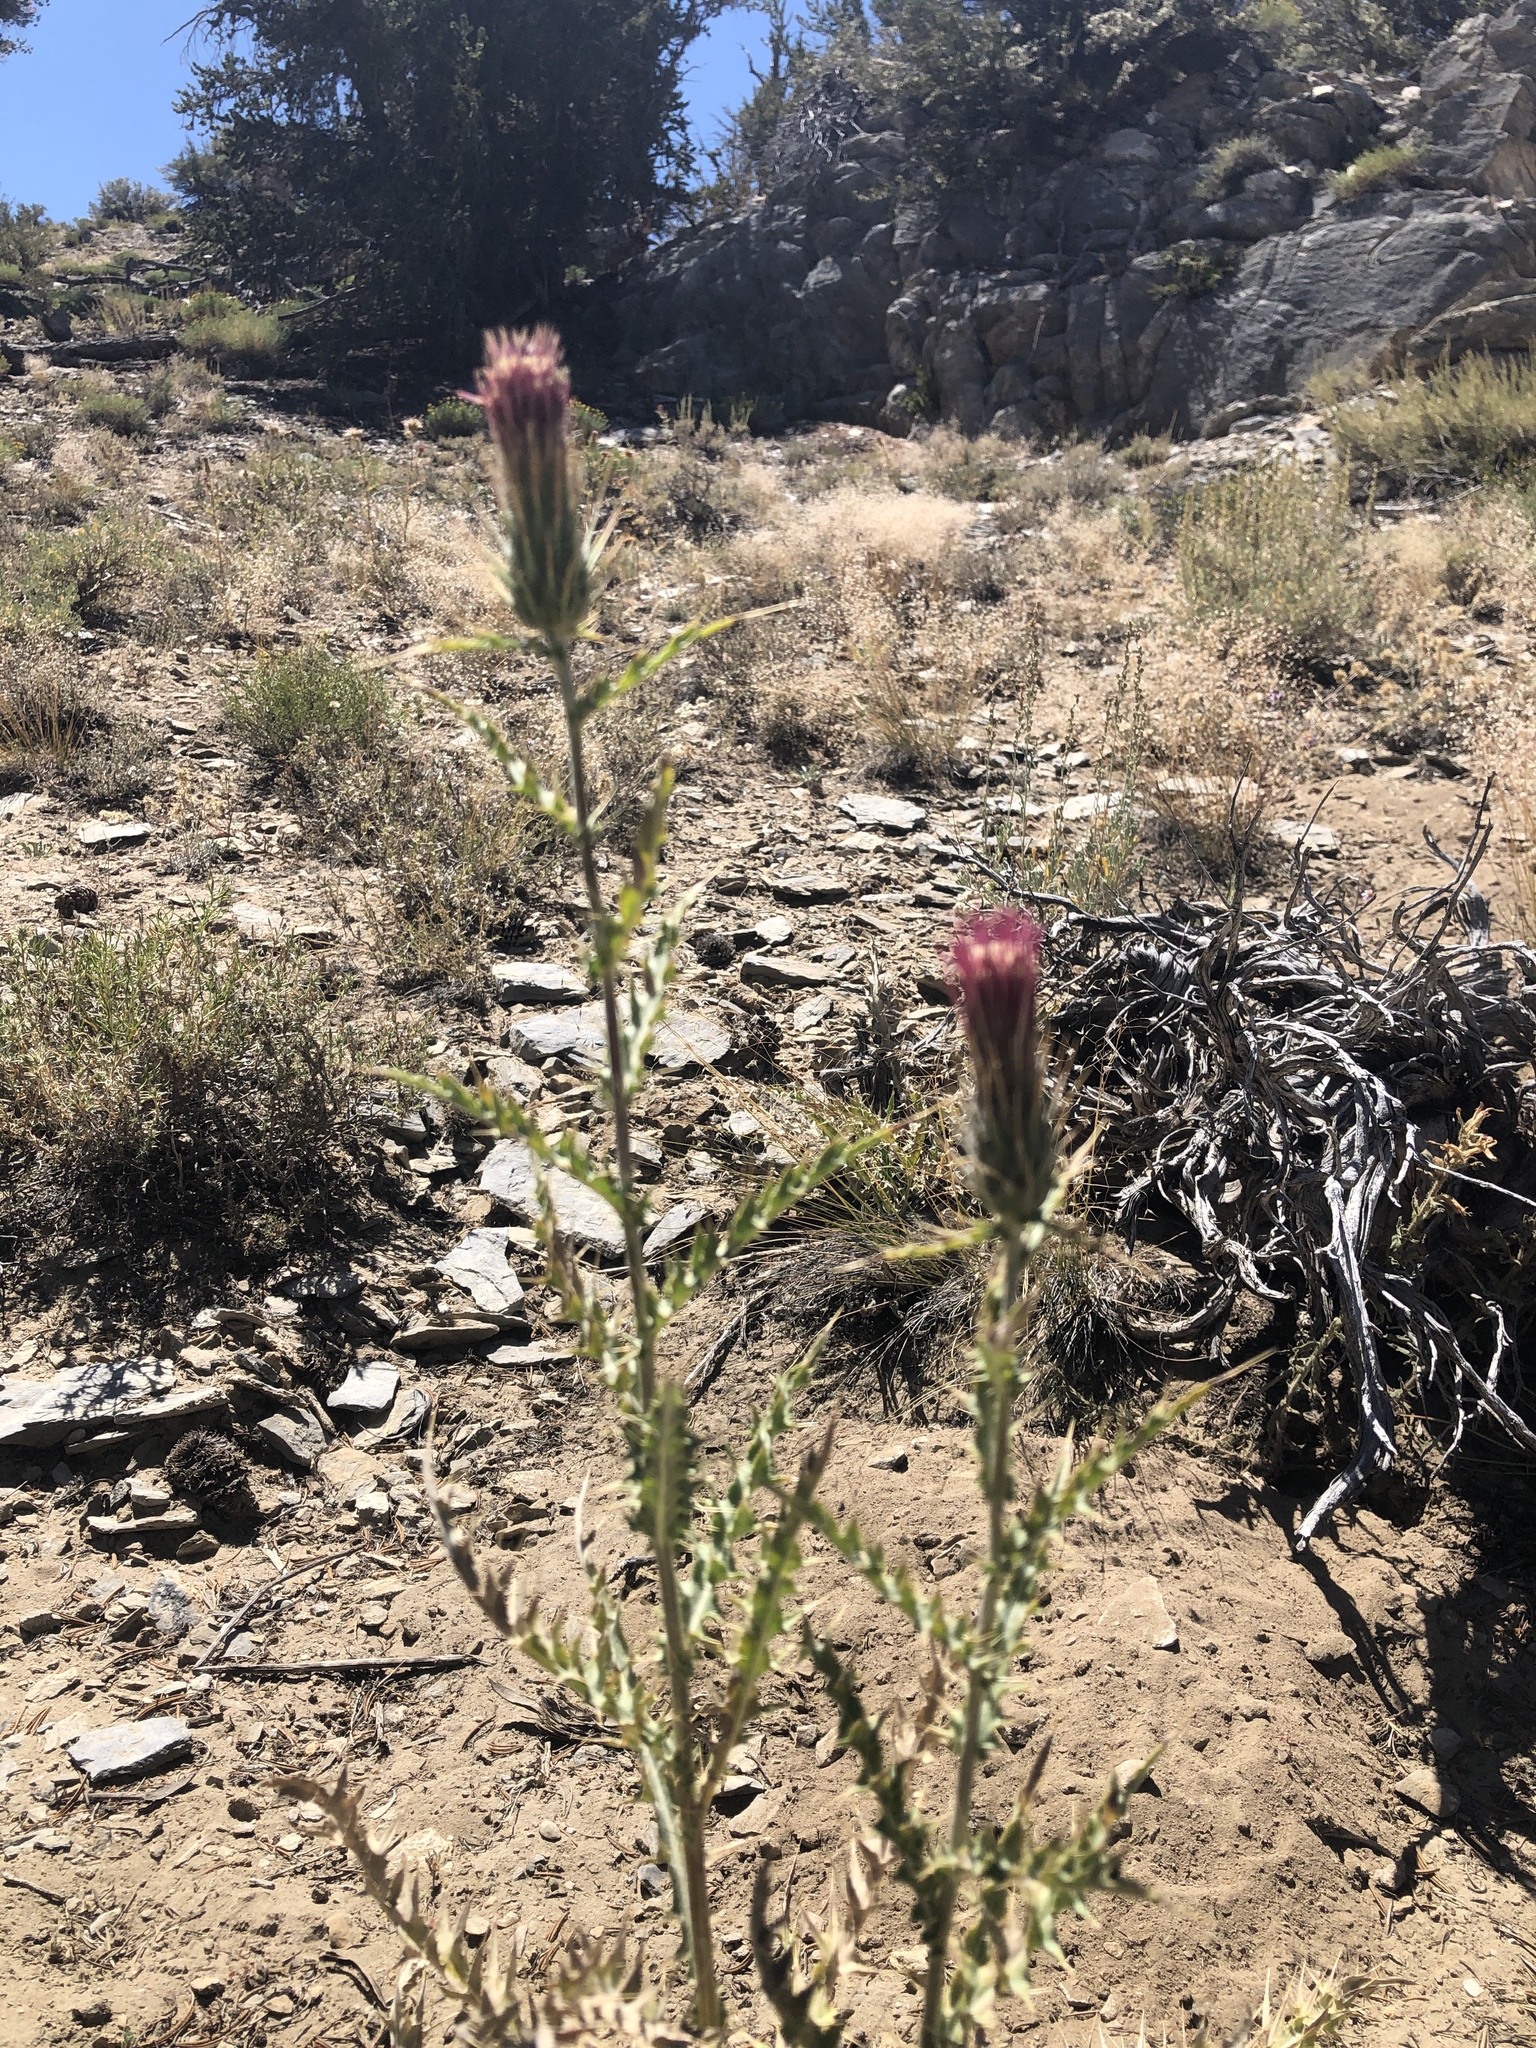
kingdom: Plantae
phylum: Tracheophyta
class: Magnoliopsida
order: Asterales
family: Asteraceae
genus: Cirsium
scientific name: Cirsium arizonicum
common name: Arizona thistle
